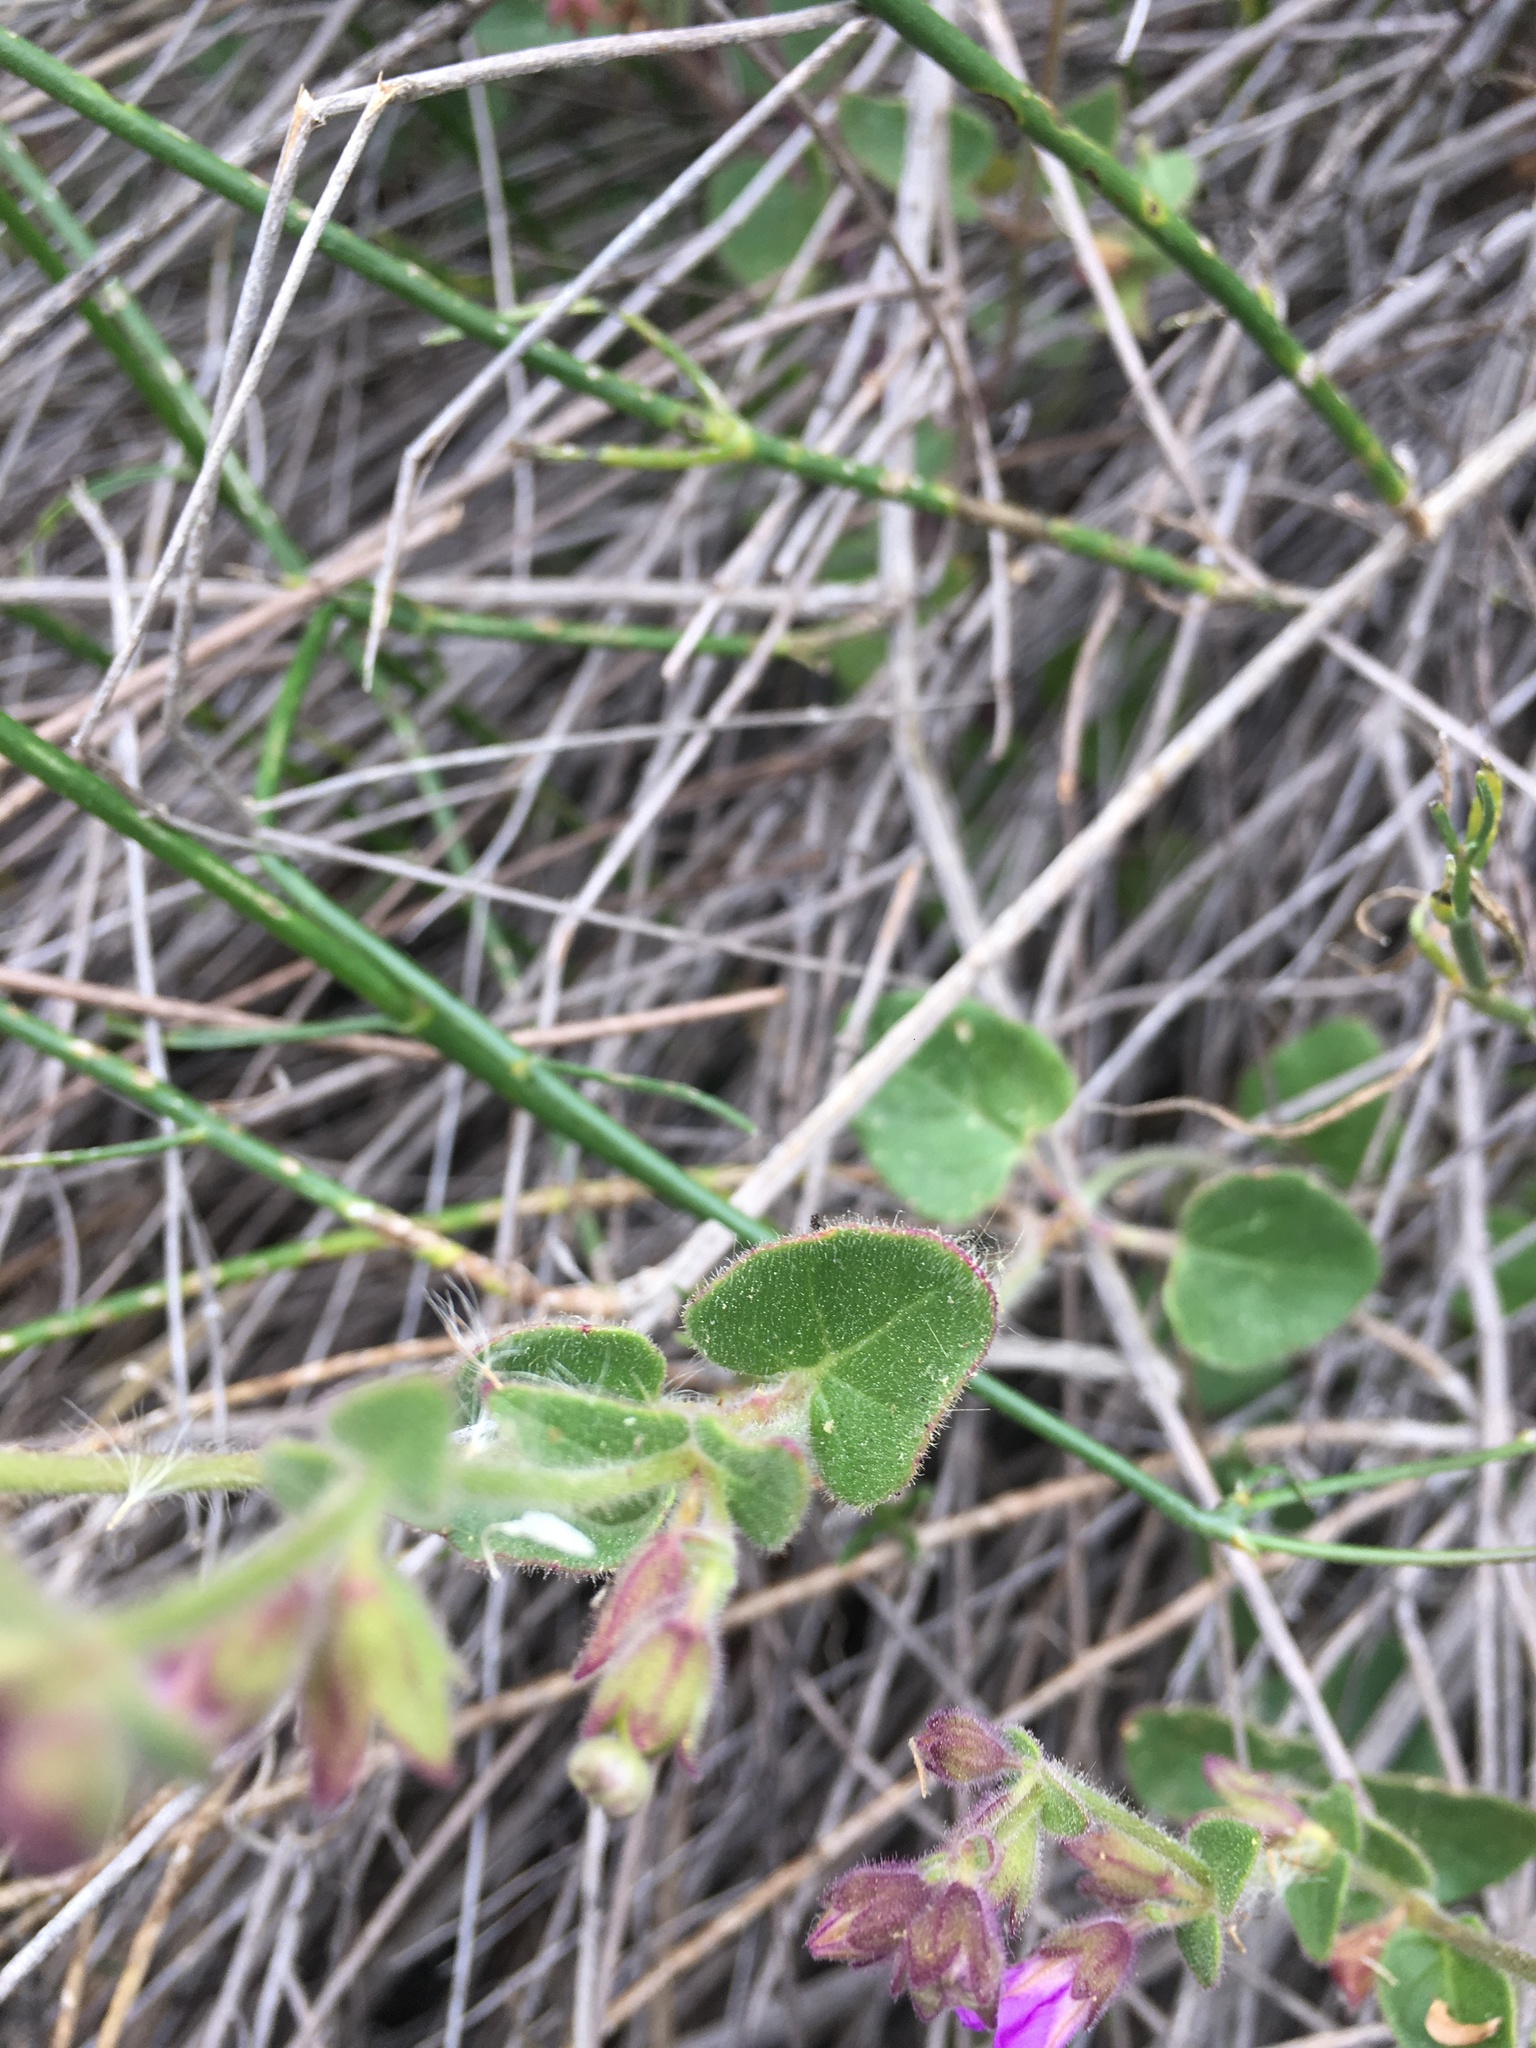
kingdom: Plantae
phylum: Tracheophyta
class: Magnoliopsida
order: Caryophyllales
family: Nyctaginaceae
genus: Mirabilis
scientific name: Mirabilis laevis
